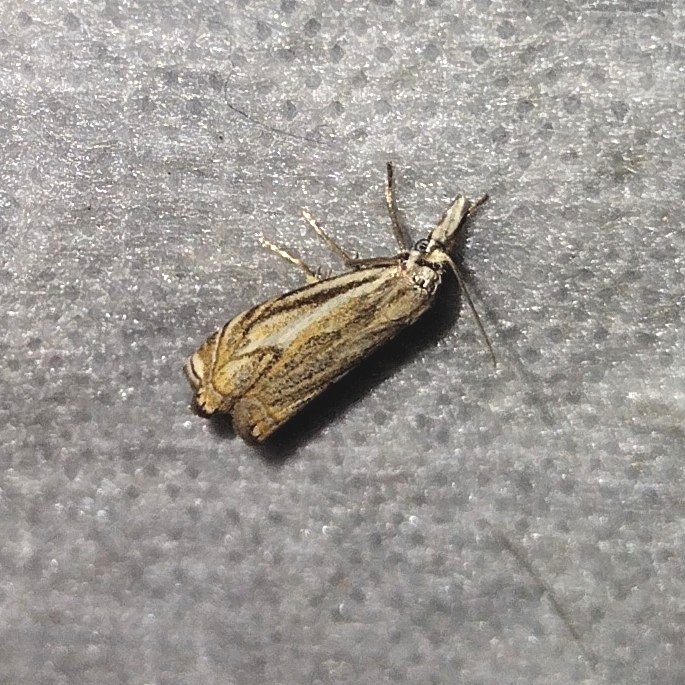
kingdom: Animalia
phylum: Arthropoda
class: Insecta
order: Lepidoptera
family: Crambidae
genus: Crambus
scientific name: Crambus nemorella
